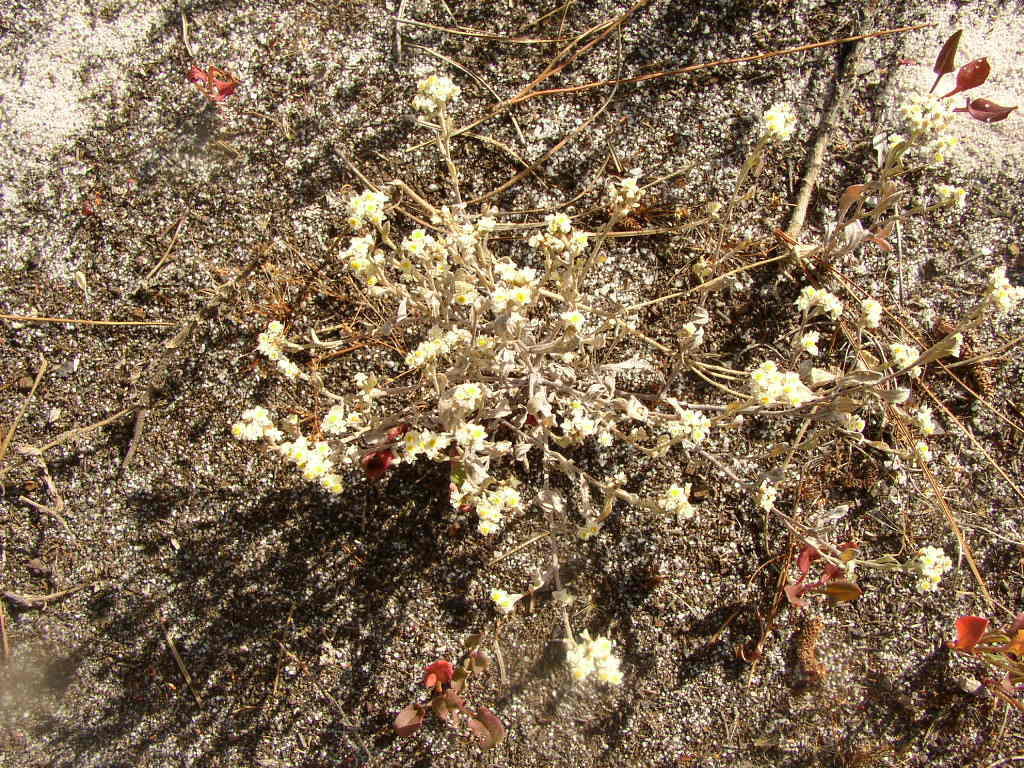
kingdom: Plantae
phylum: Tracheophyta
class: Magnoliopsida
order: Asterales
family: Asteraceae
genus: Helichrysum
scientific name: Helichrysum indicum
